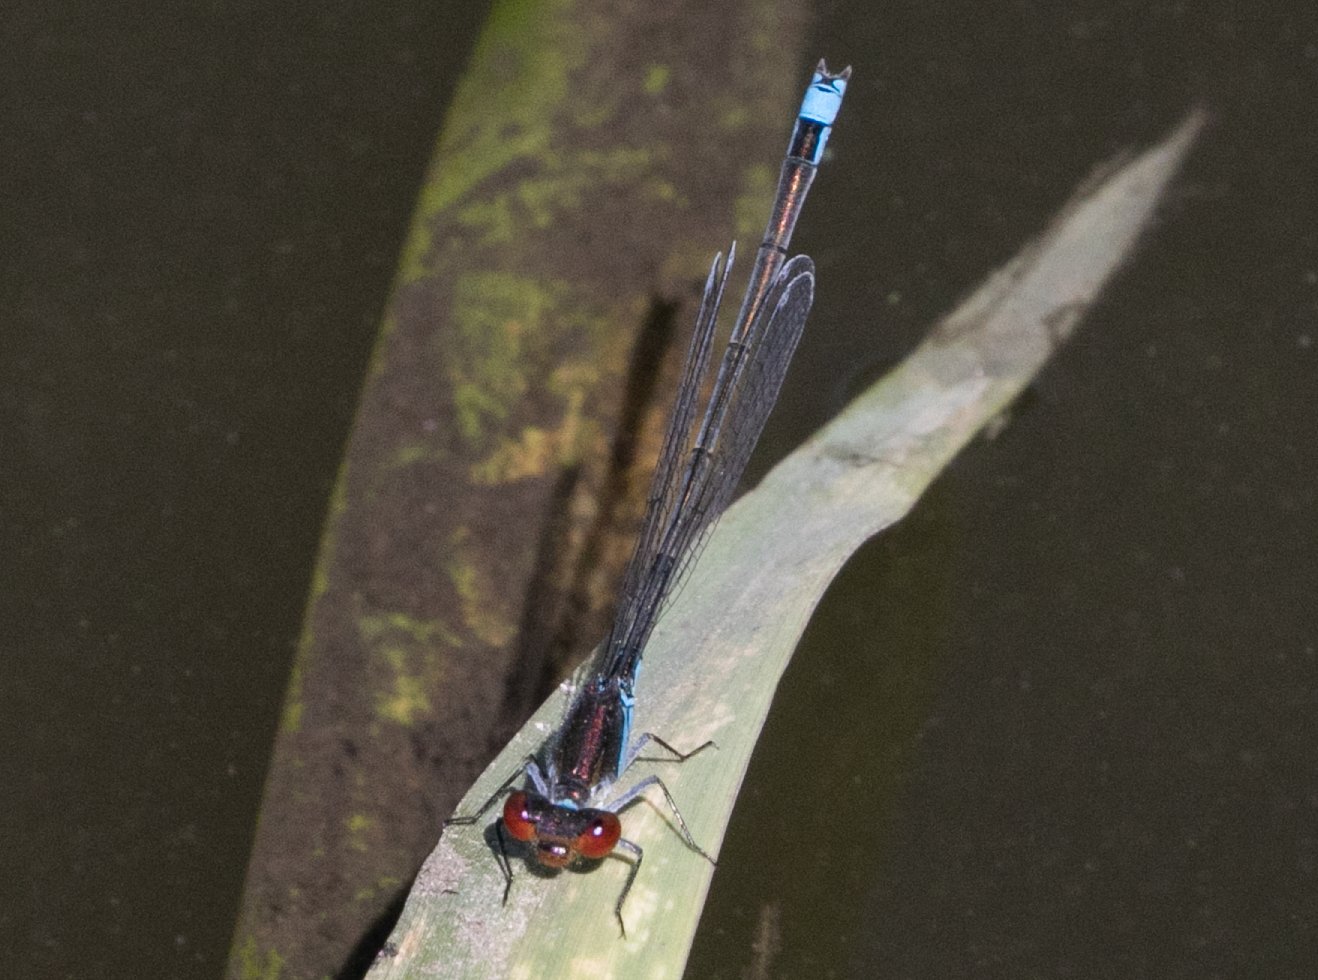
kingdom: Animalia
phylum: Arthropoda
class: Insecta
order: Odonata
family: Coenagrionidae
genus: Erythromma
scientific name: Erythromma viridulum
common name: Small red-eyed damselfly
